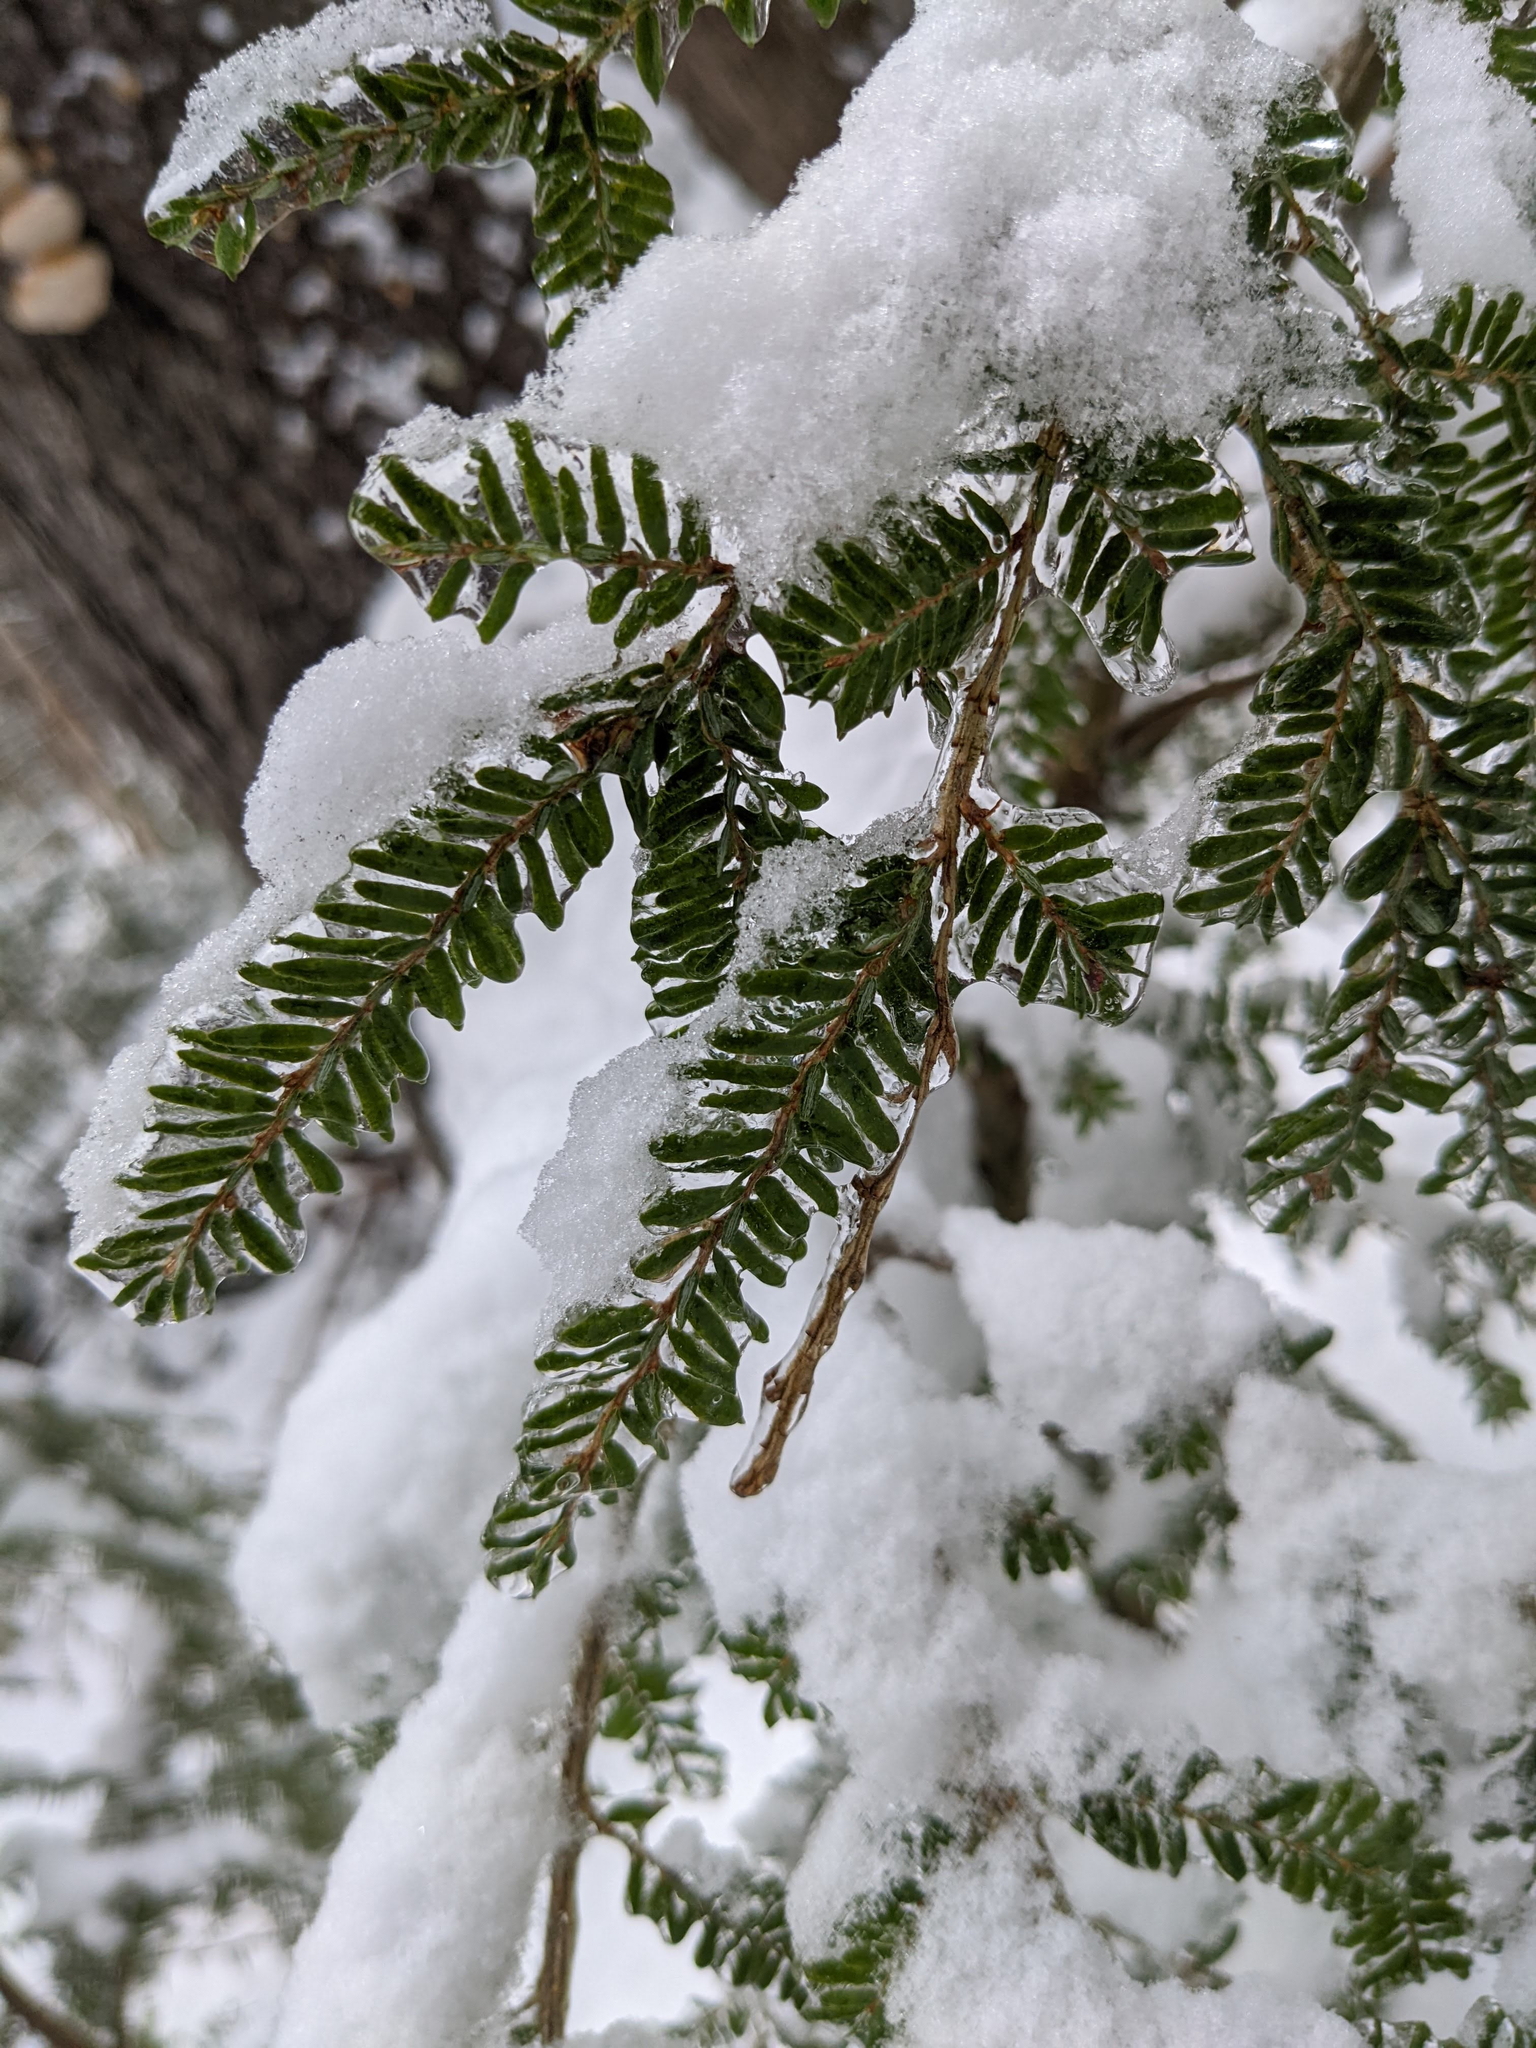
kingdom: Plantae
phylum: Tracheophyta
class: Pinopsida
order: Pinales
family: Pinaceae
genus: Tsuga
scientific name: Tsuga canadensis
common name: Eastern hemlock
